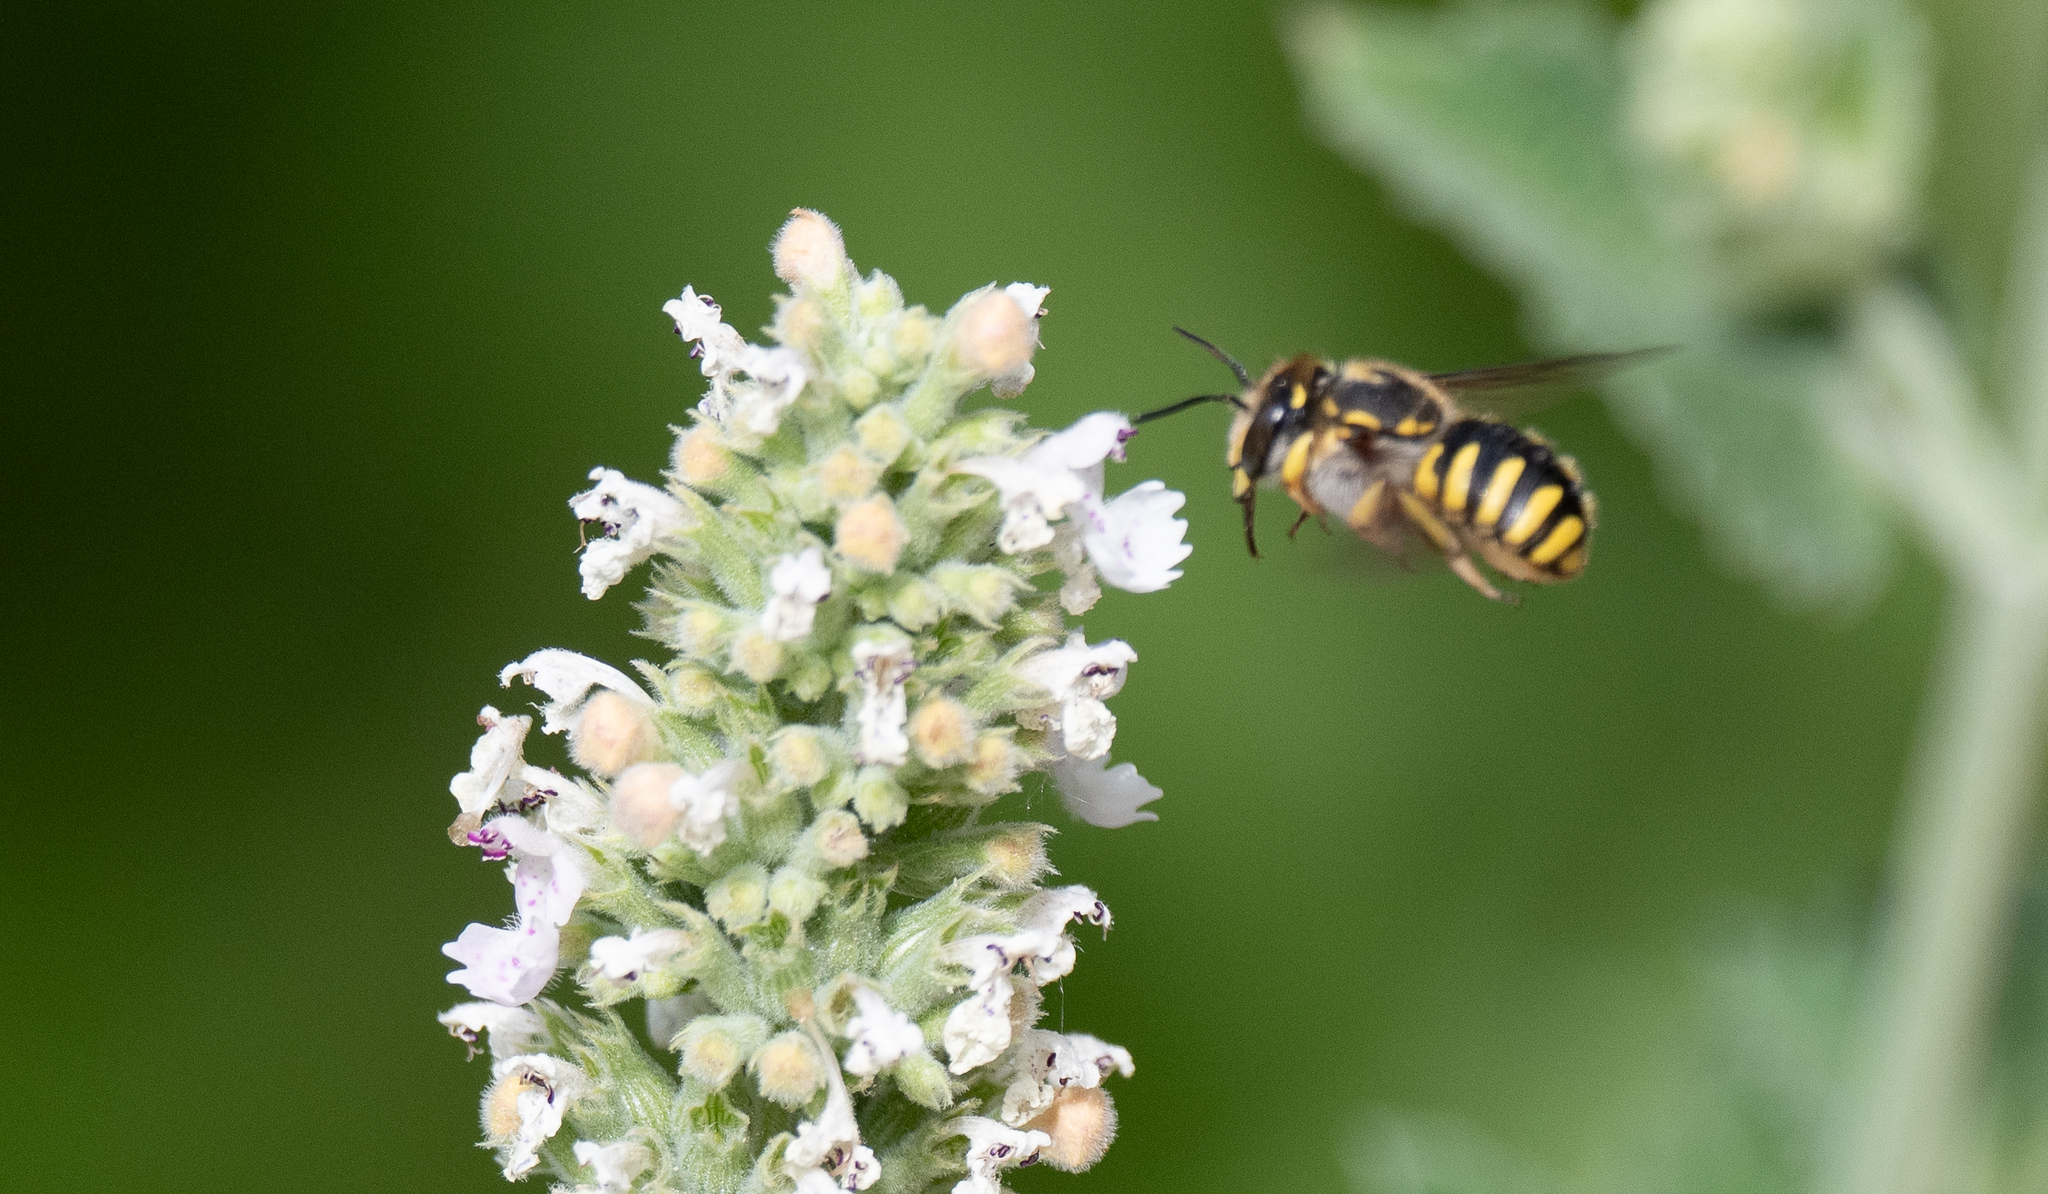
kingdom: Animalia
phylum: Arthropoda
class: Insecta
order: Hymenoptera
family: Megachilidae
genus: Anthidium
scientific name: Anthidium manicatum
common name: Wool carder bee
